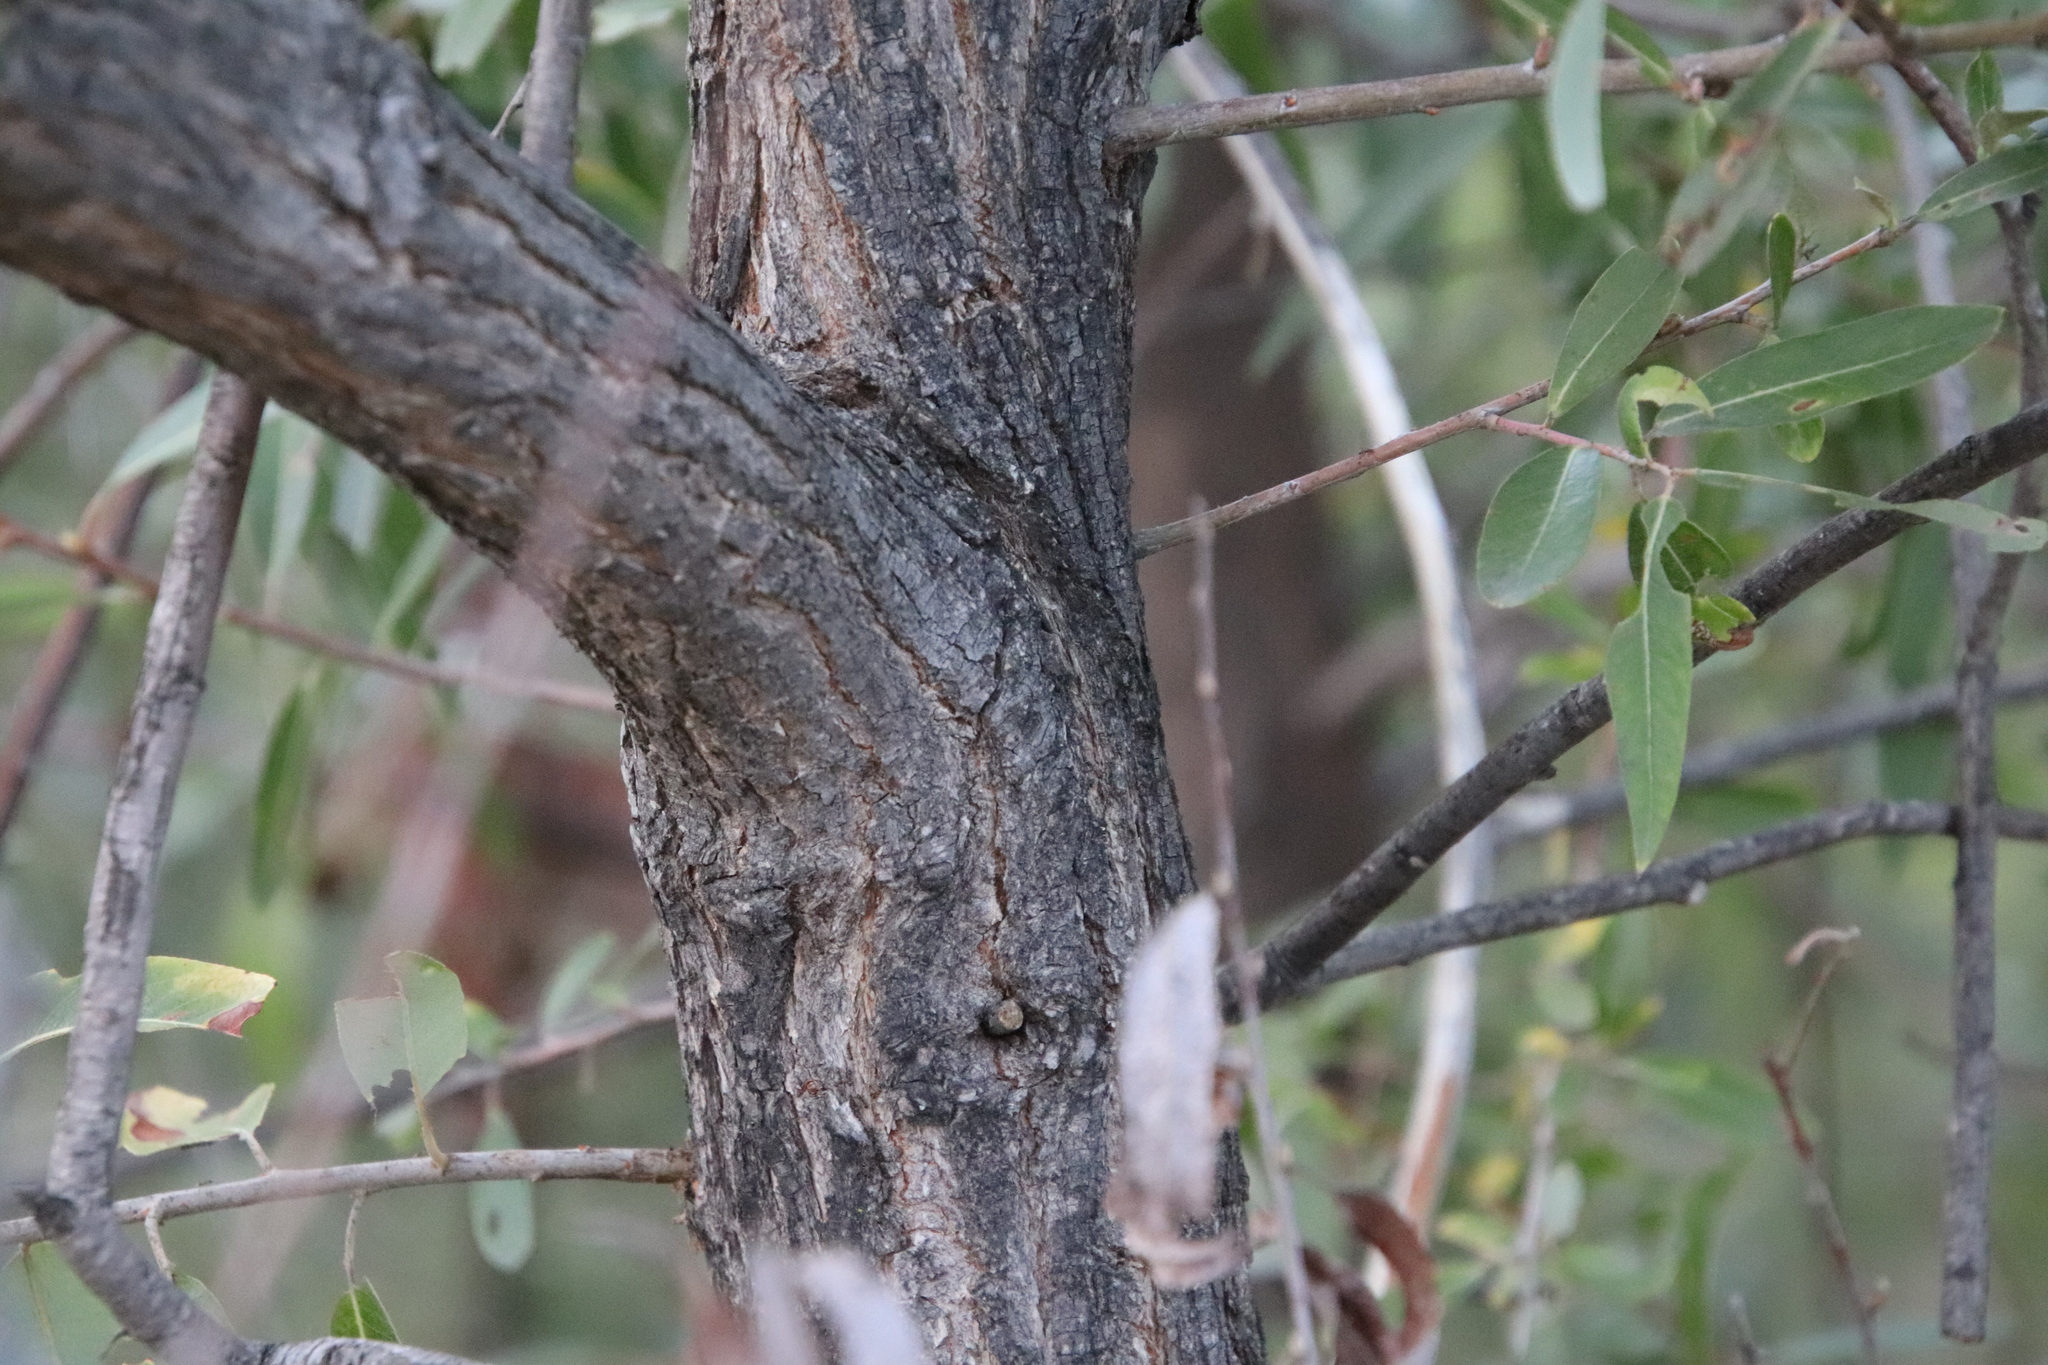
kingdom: Plantae
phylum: Tracheophyta
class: Magnoliopsida
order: Malpighiales
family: Salicaceae
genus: Salix
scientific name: Salix laevigata
